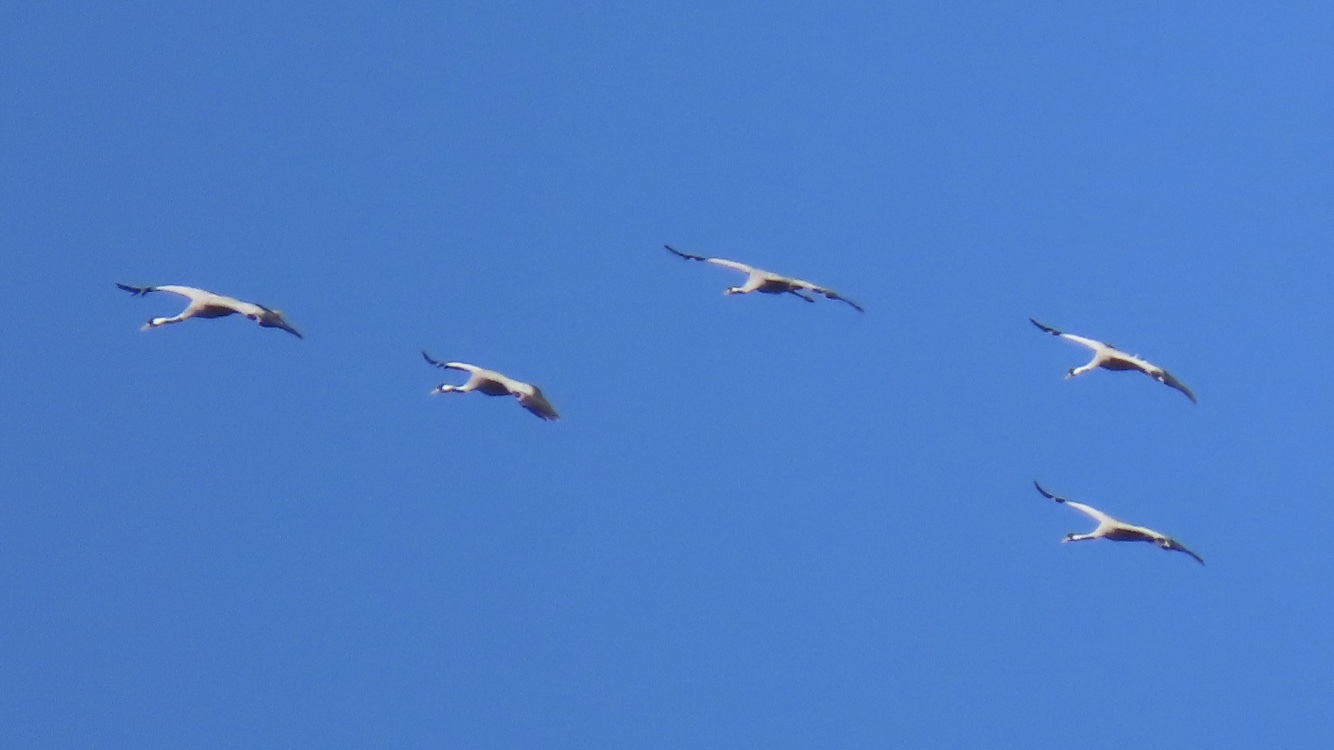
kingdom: Animalia
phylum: Chordata
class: Aves
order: Gruiformes
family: Gruidae
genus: Grus
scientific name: Grus grus
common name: Common crane
